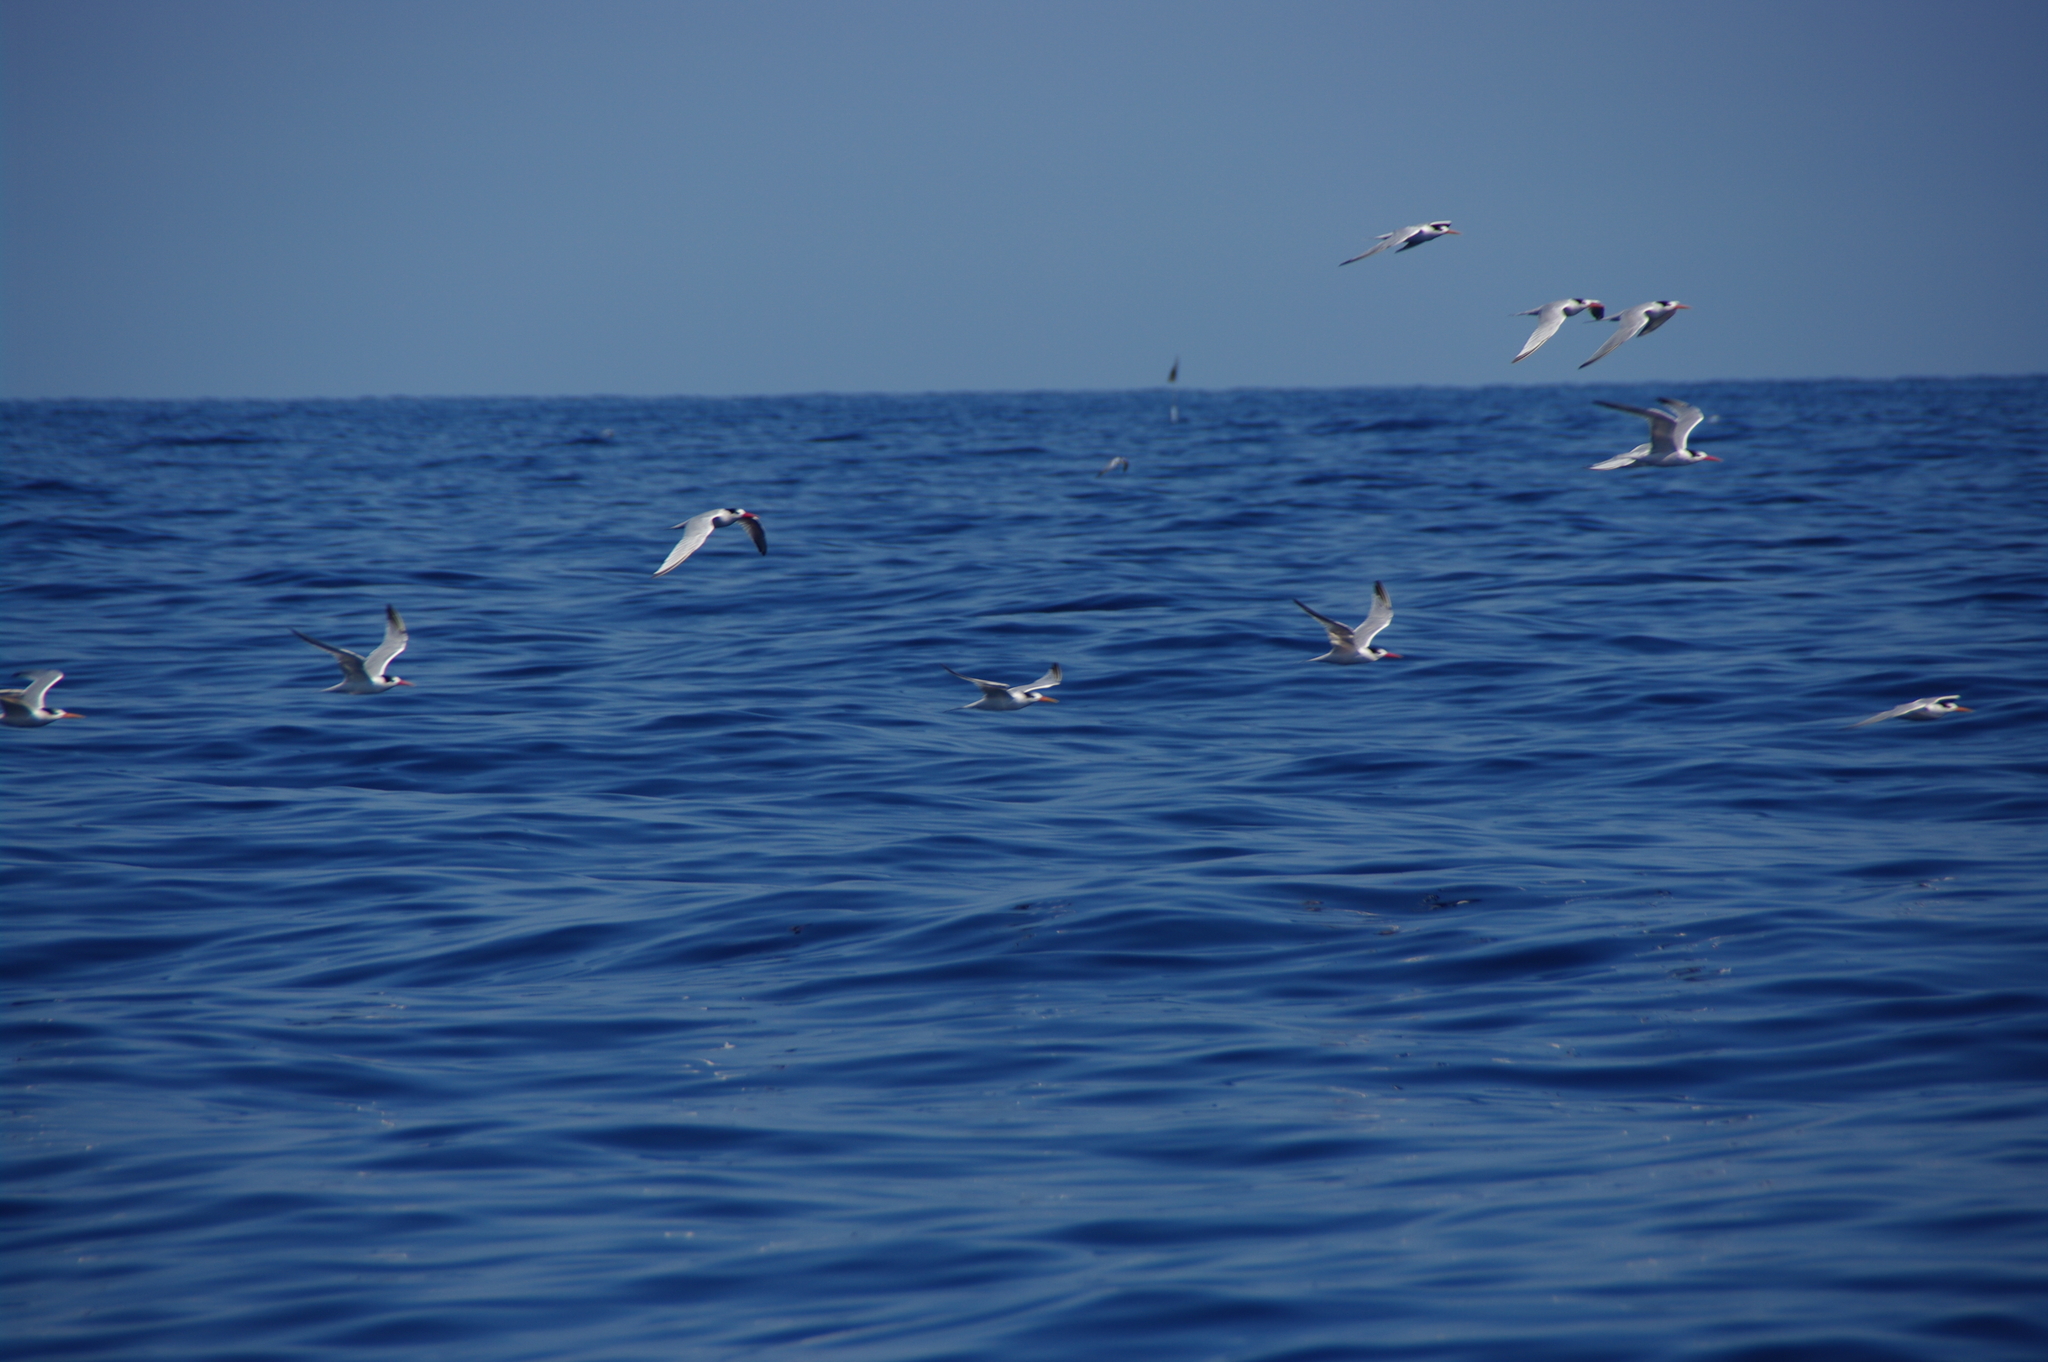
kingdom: Animalia
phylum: Chordata
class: Aves
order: Charadriiformes
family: Laridae
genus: Thalasseus
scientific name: Thalasseus maximus
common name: Royal tern
